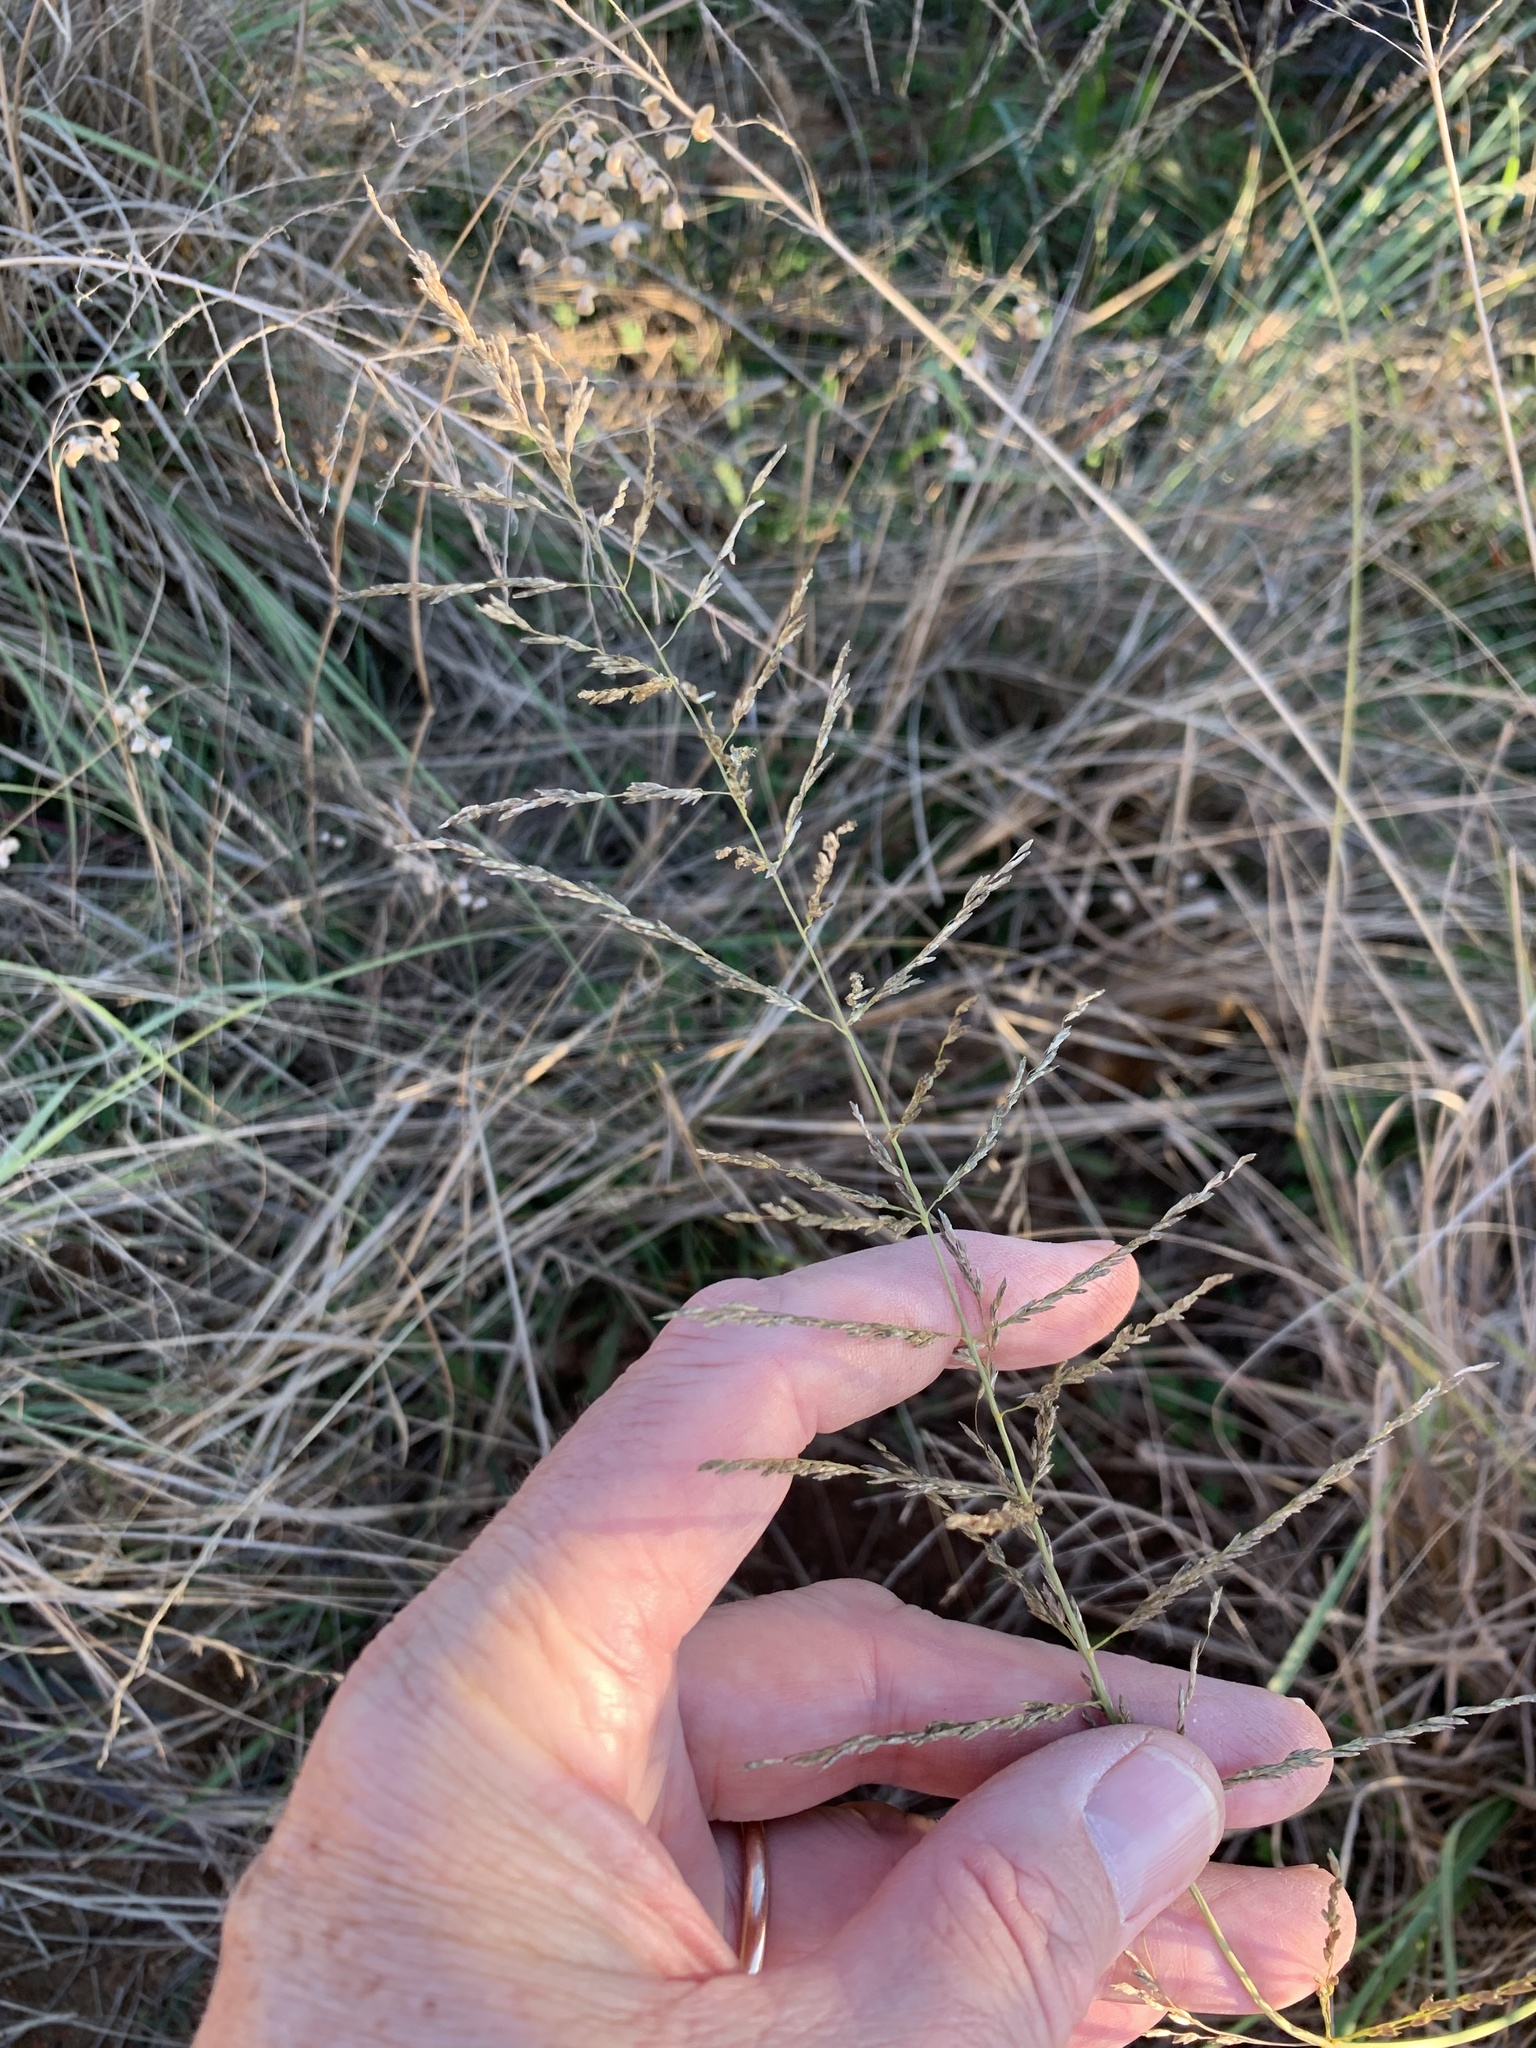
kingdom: Plantae
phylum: Tracheophyta
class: Liliopsida
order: Poales
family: Poaceae
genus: Eragrostis
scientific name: Eragrostis curvula
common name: African love-grass
